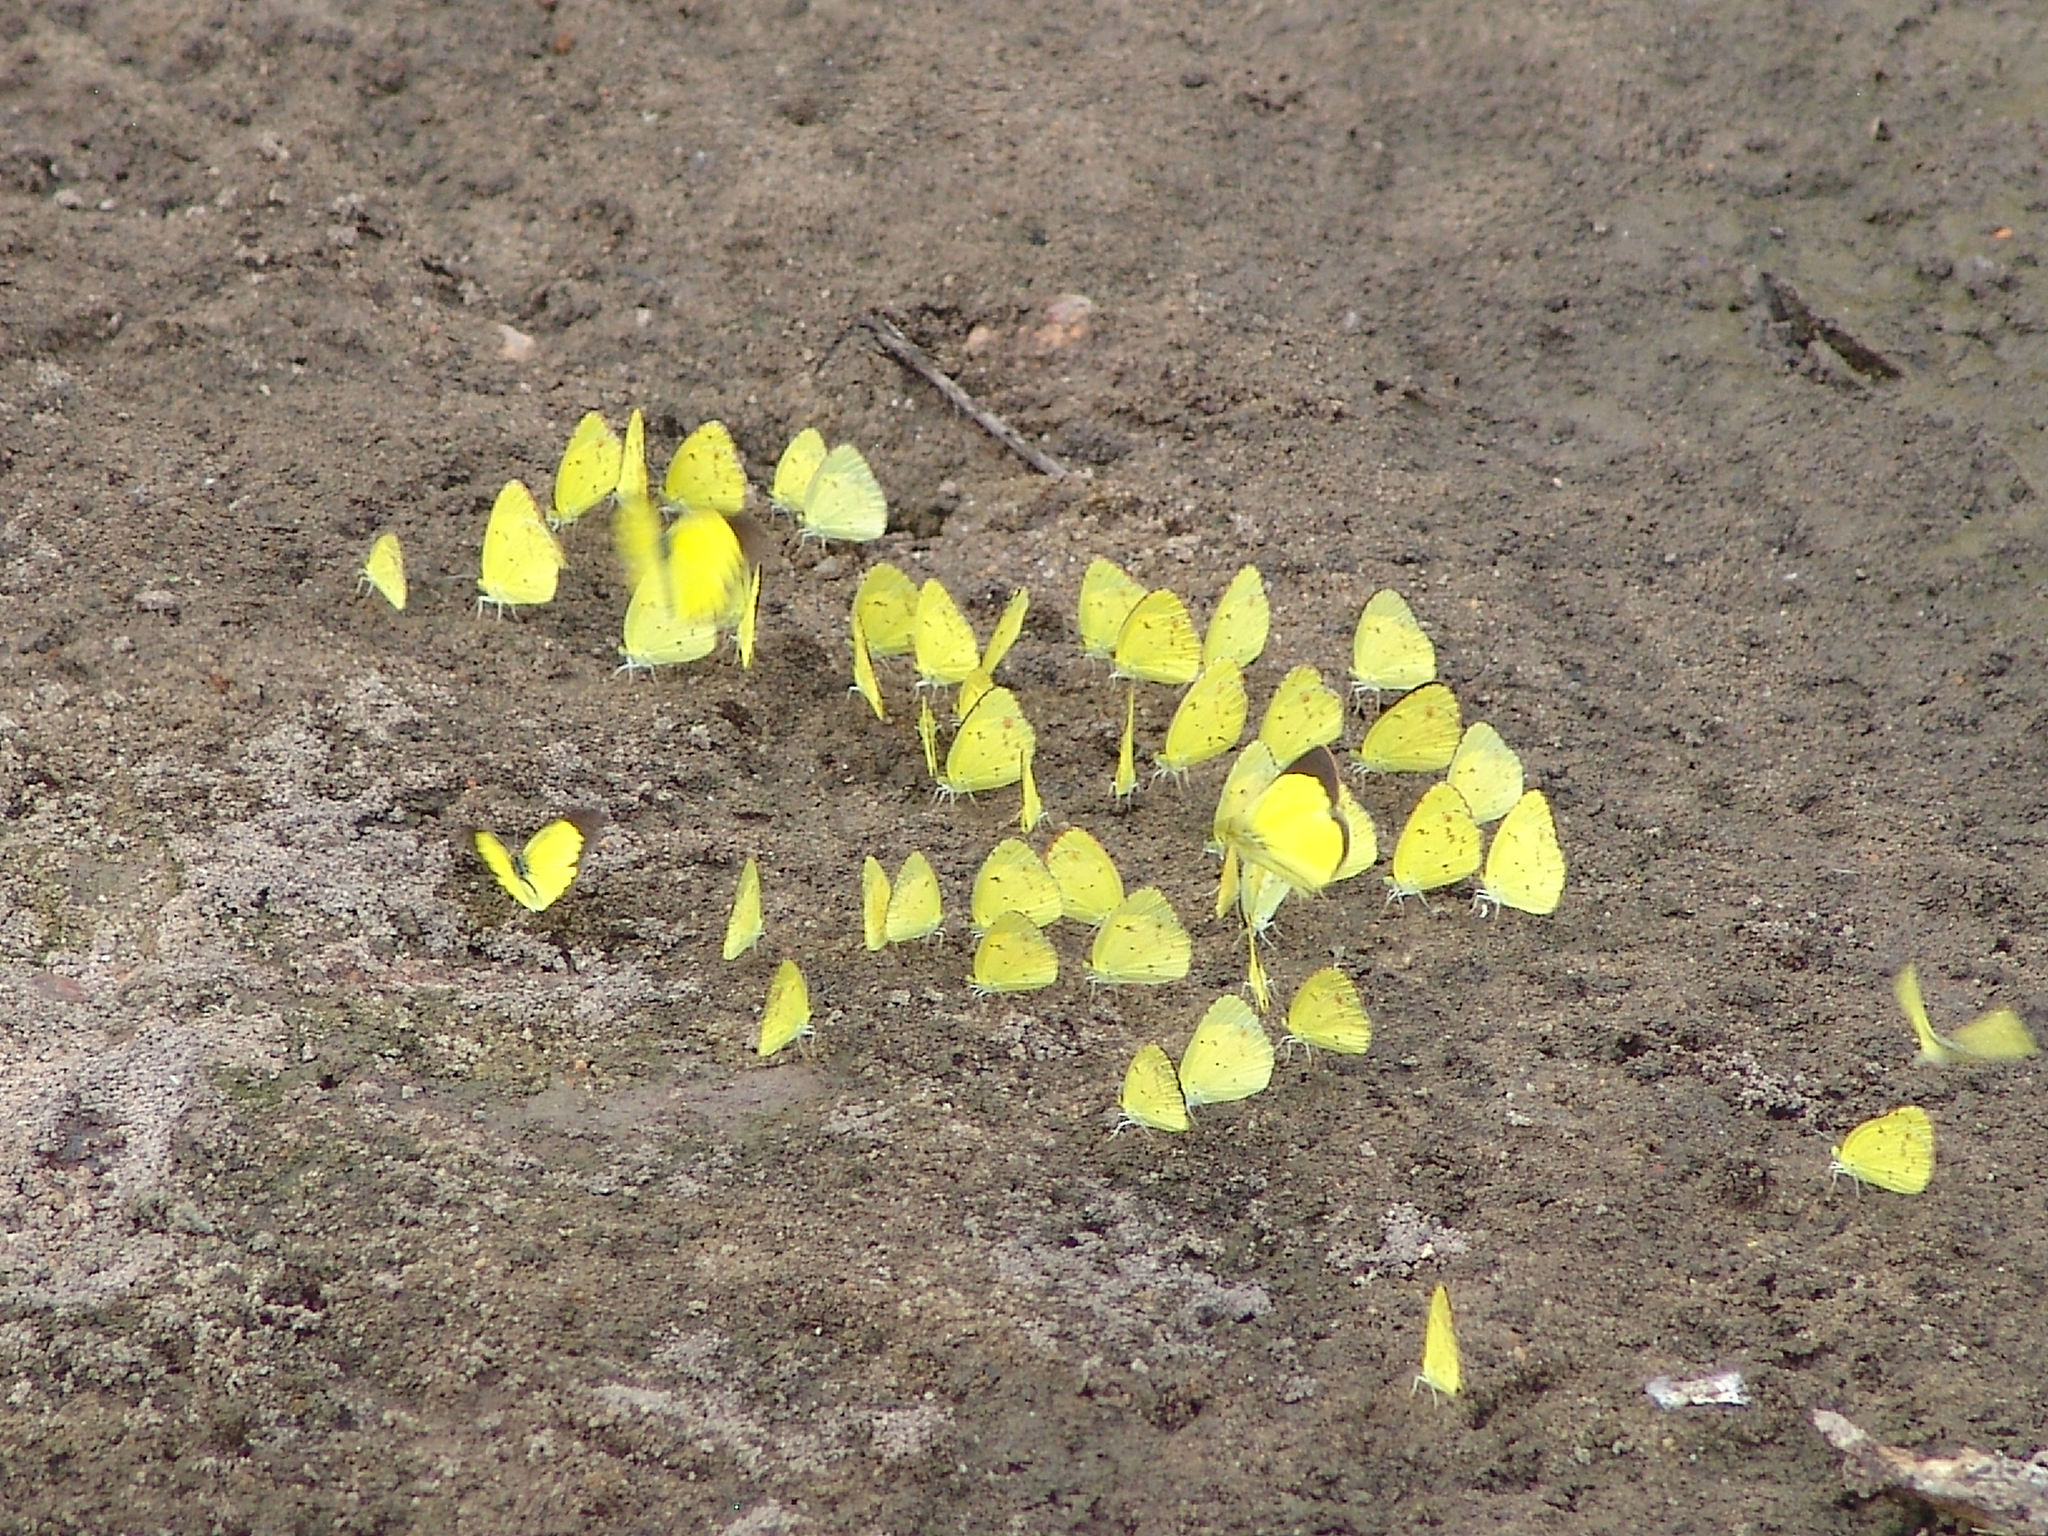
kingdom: Animalia
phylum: Arthropoda
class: Insecta
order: Lepidoptera
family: Pieridae
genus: Pyrisitia
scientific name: Pyrisitia lisa
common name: Little yellow
